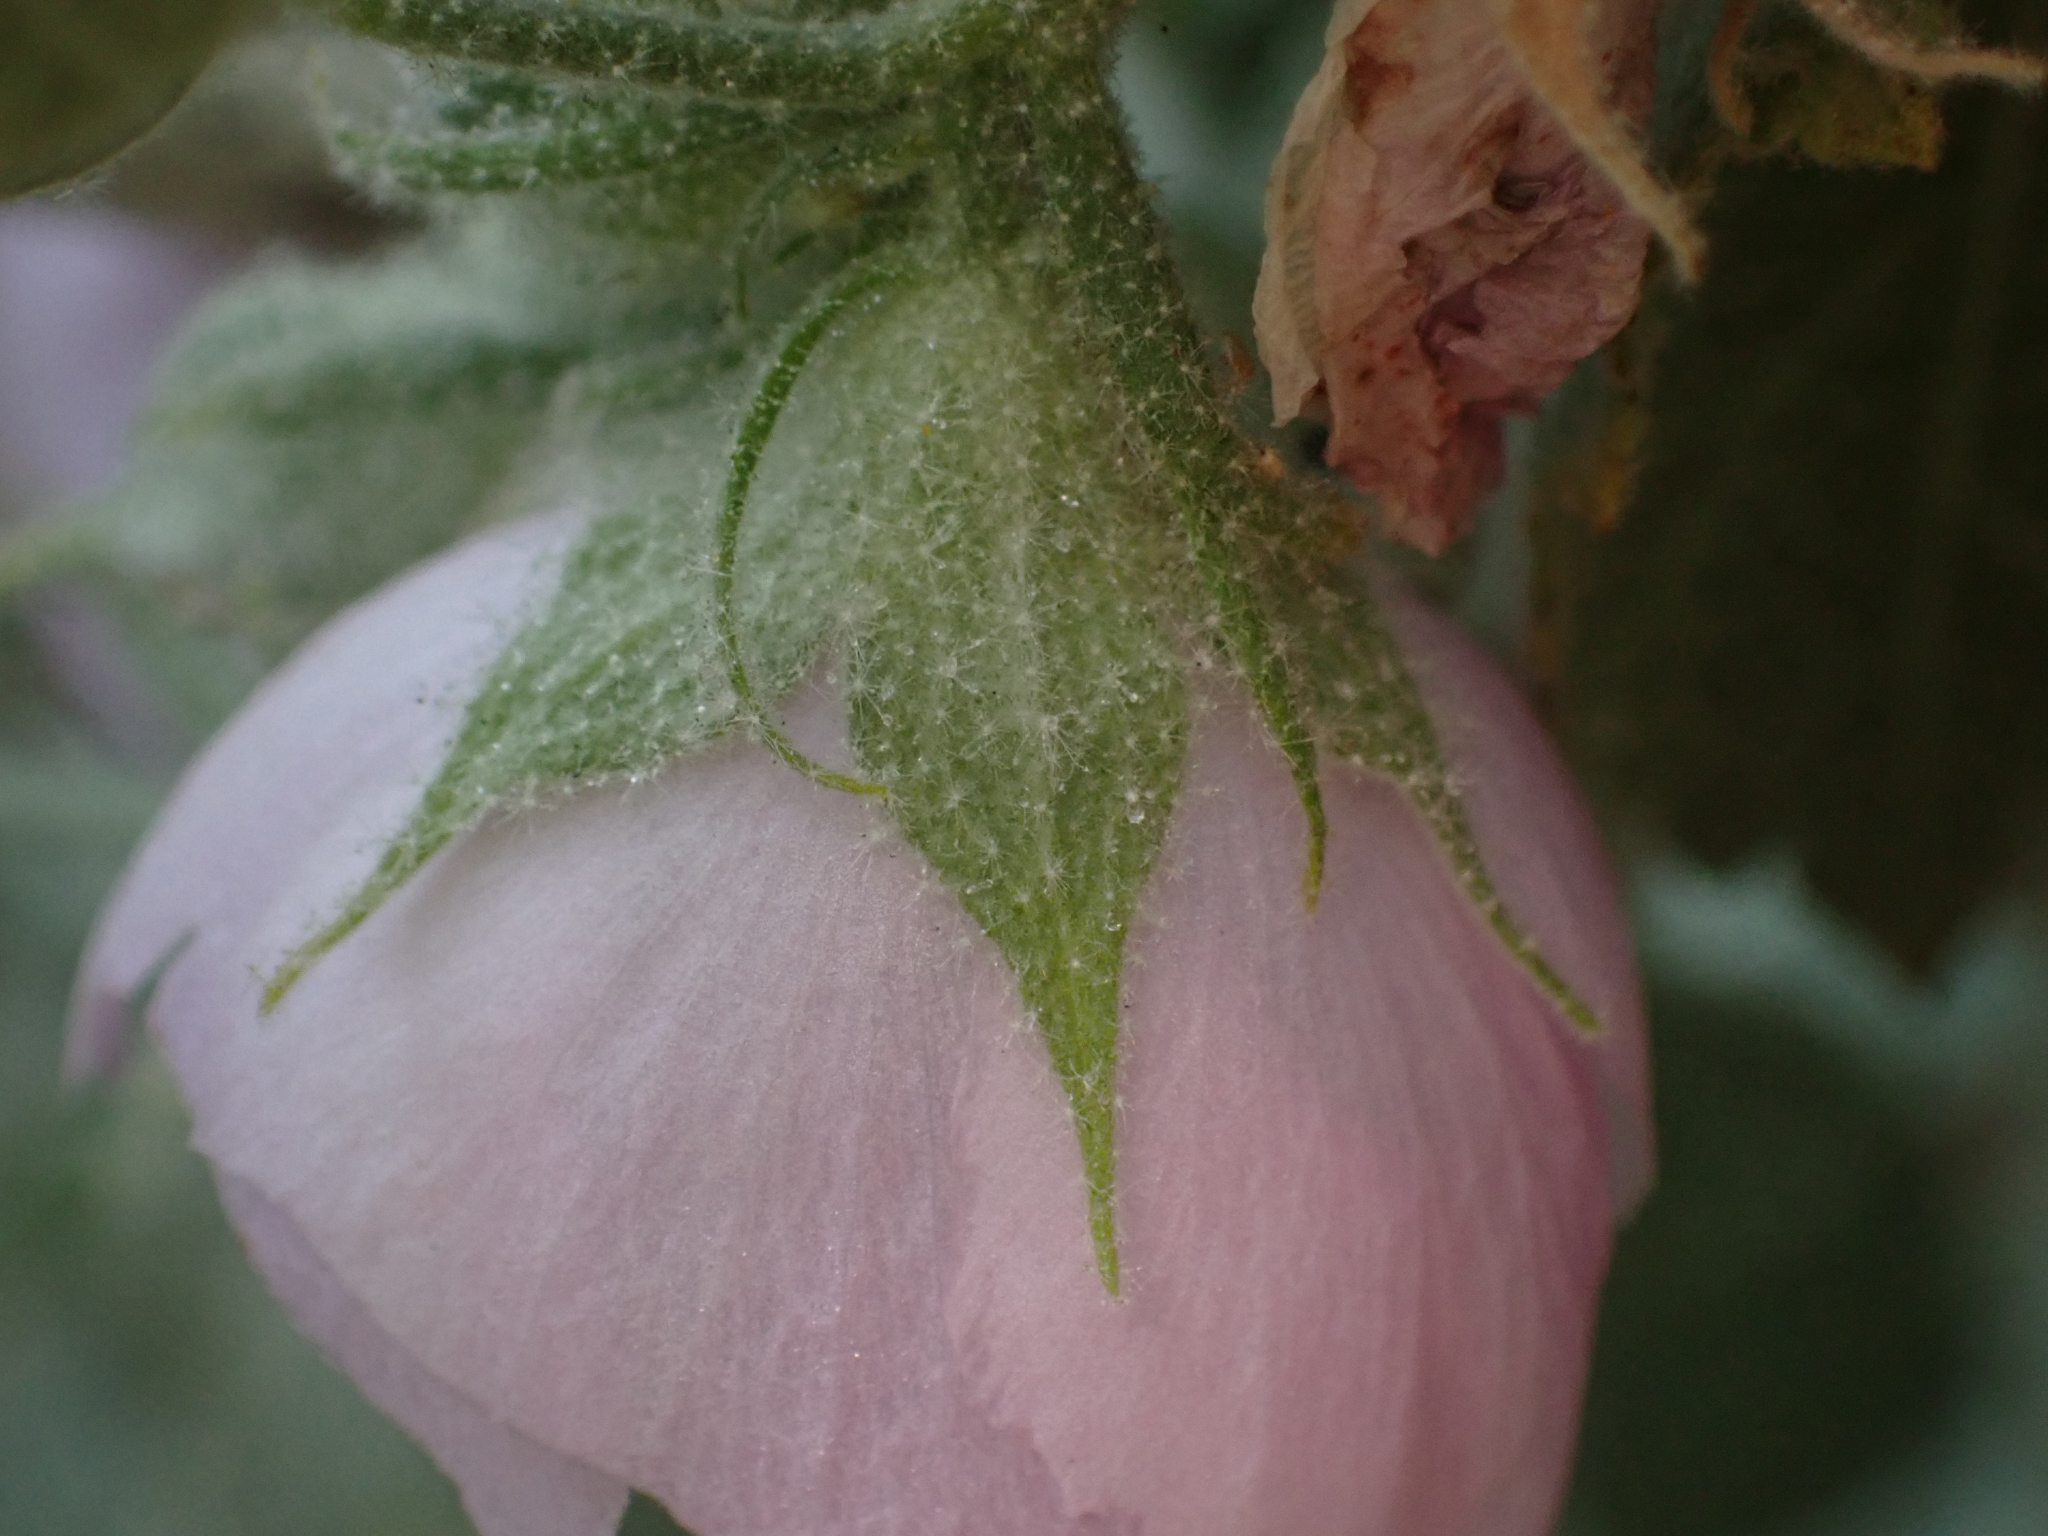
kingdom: Plantae
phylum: Tracheophyta
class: Magnoliopsida
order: Malvales
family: Malvaceae
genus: Malacothamnus
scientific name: Malacothamnus marrubioides
